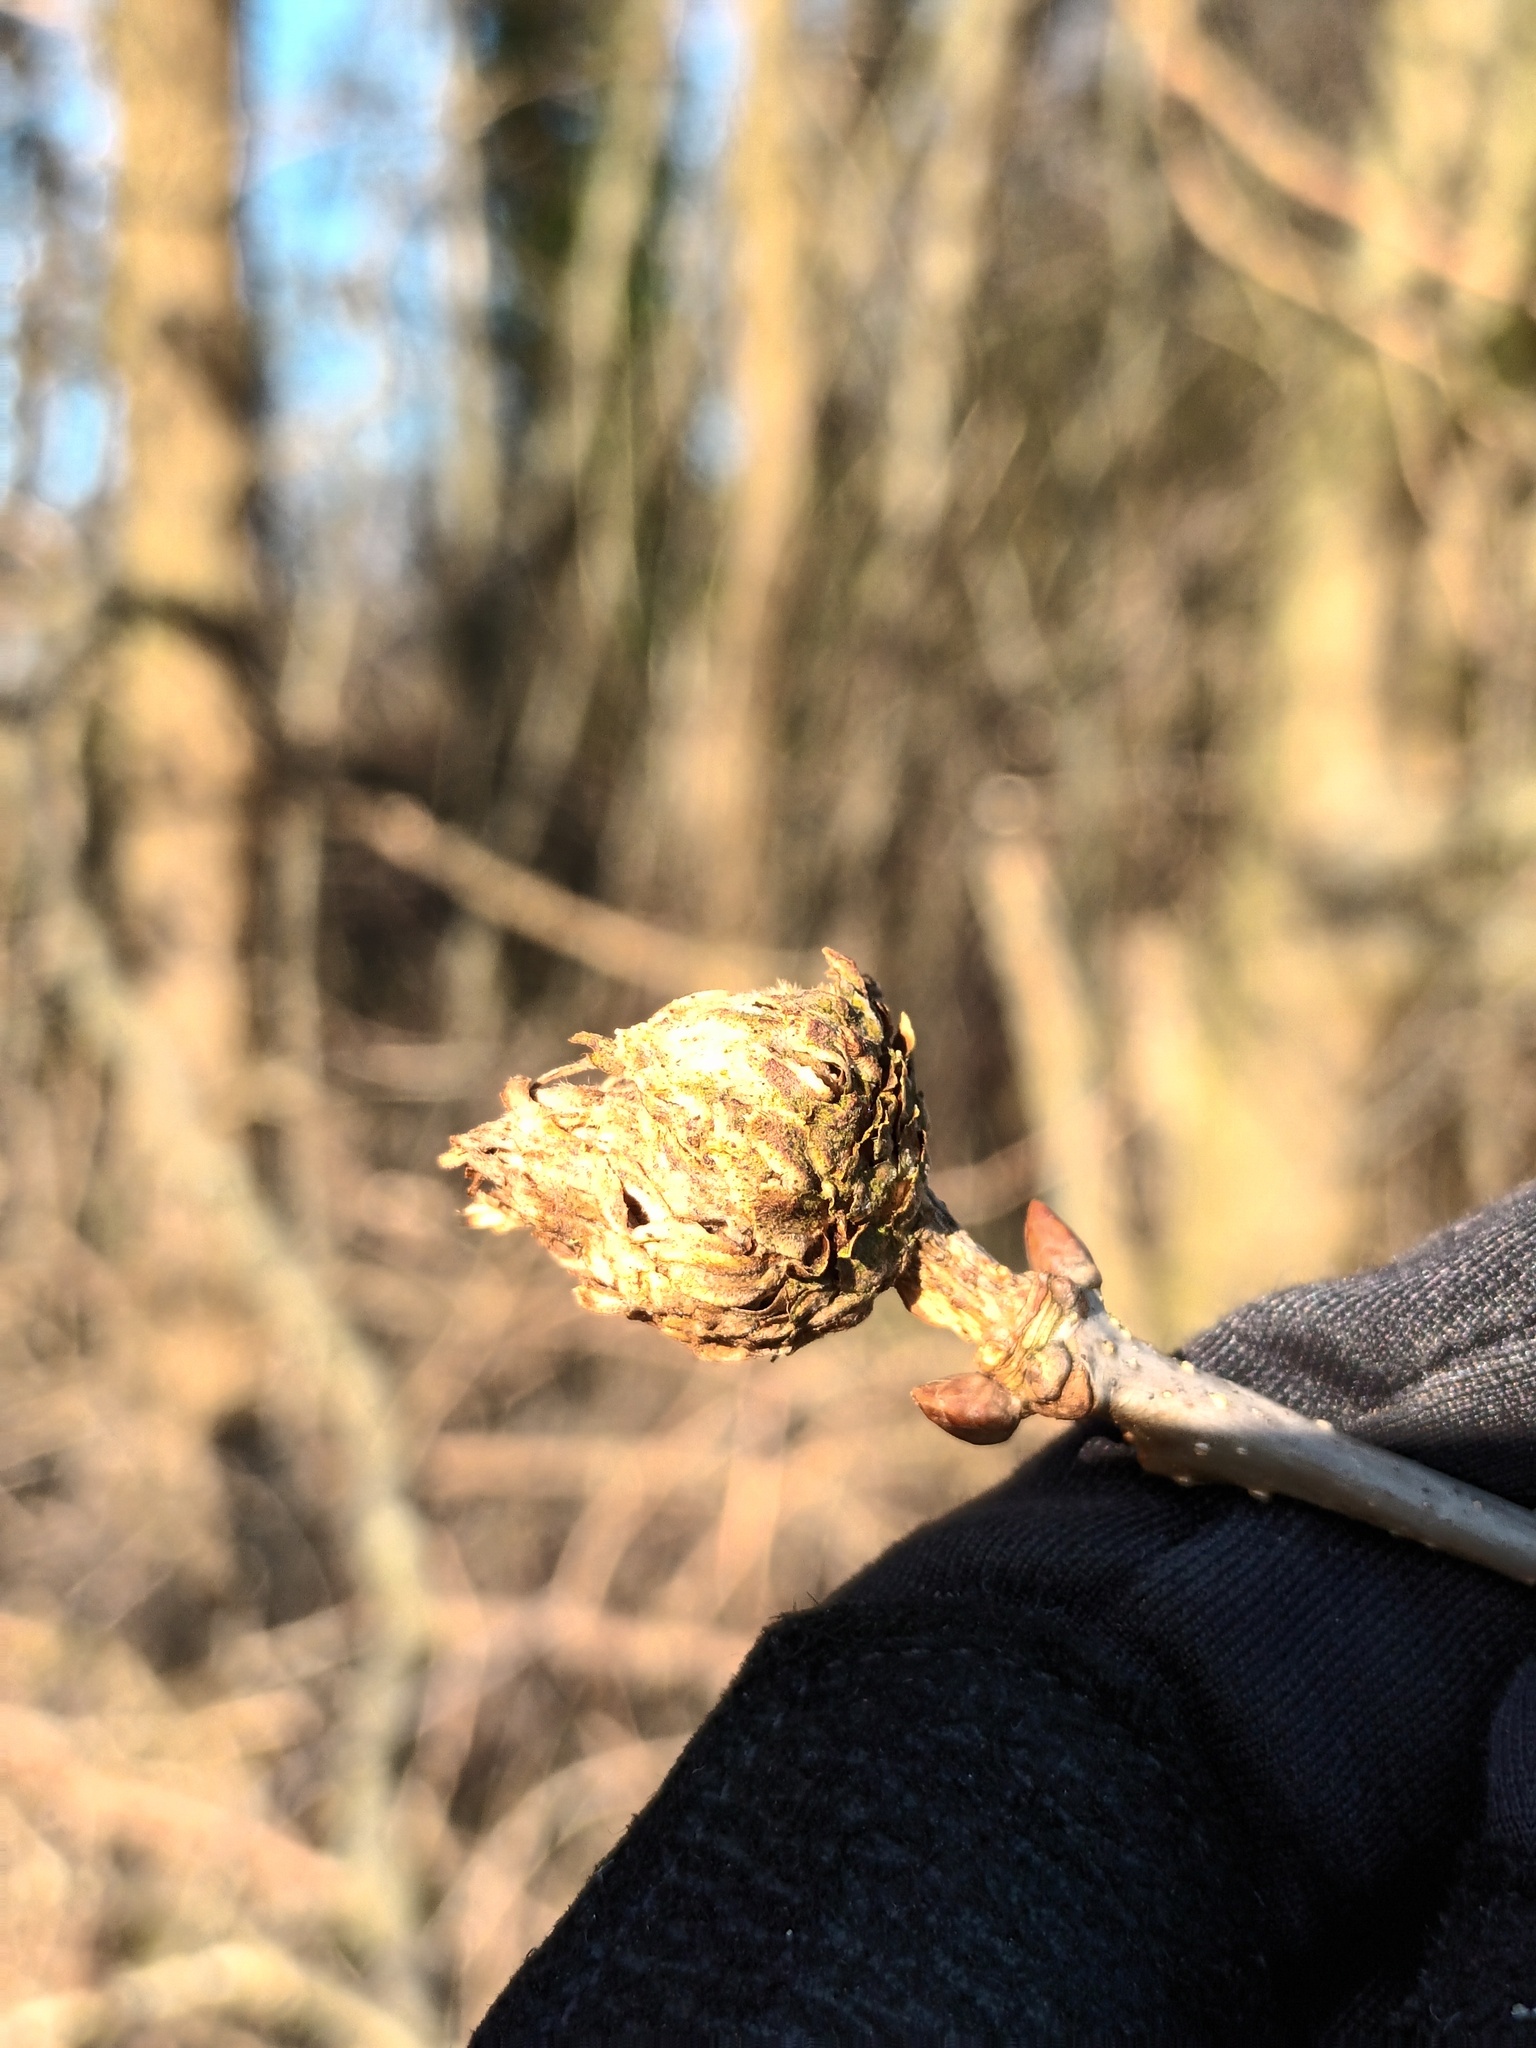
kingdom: Animalia
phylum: Arthropoda
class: Insecta
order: Hymenoptera
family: Cynipidae
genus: Andricus
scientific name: Andricus foecundatrix
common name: Artichoke gall
